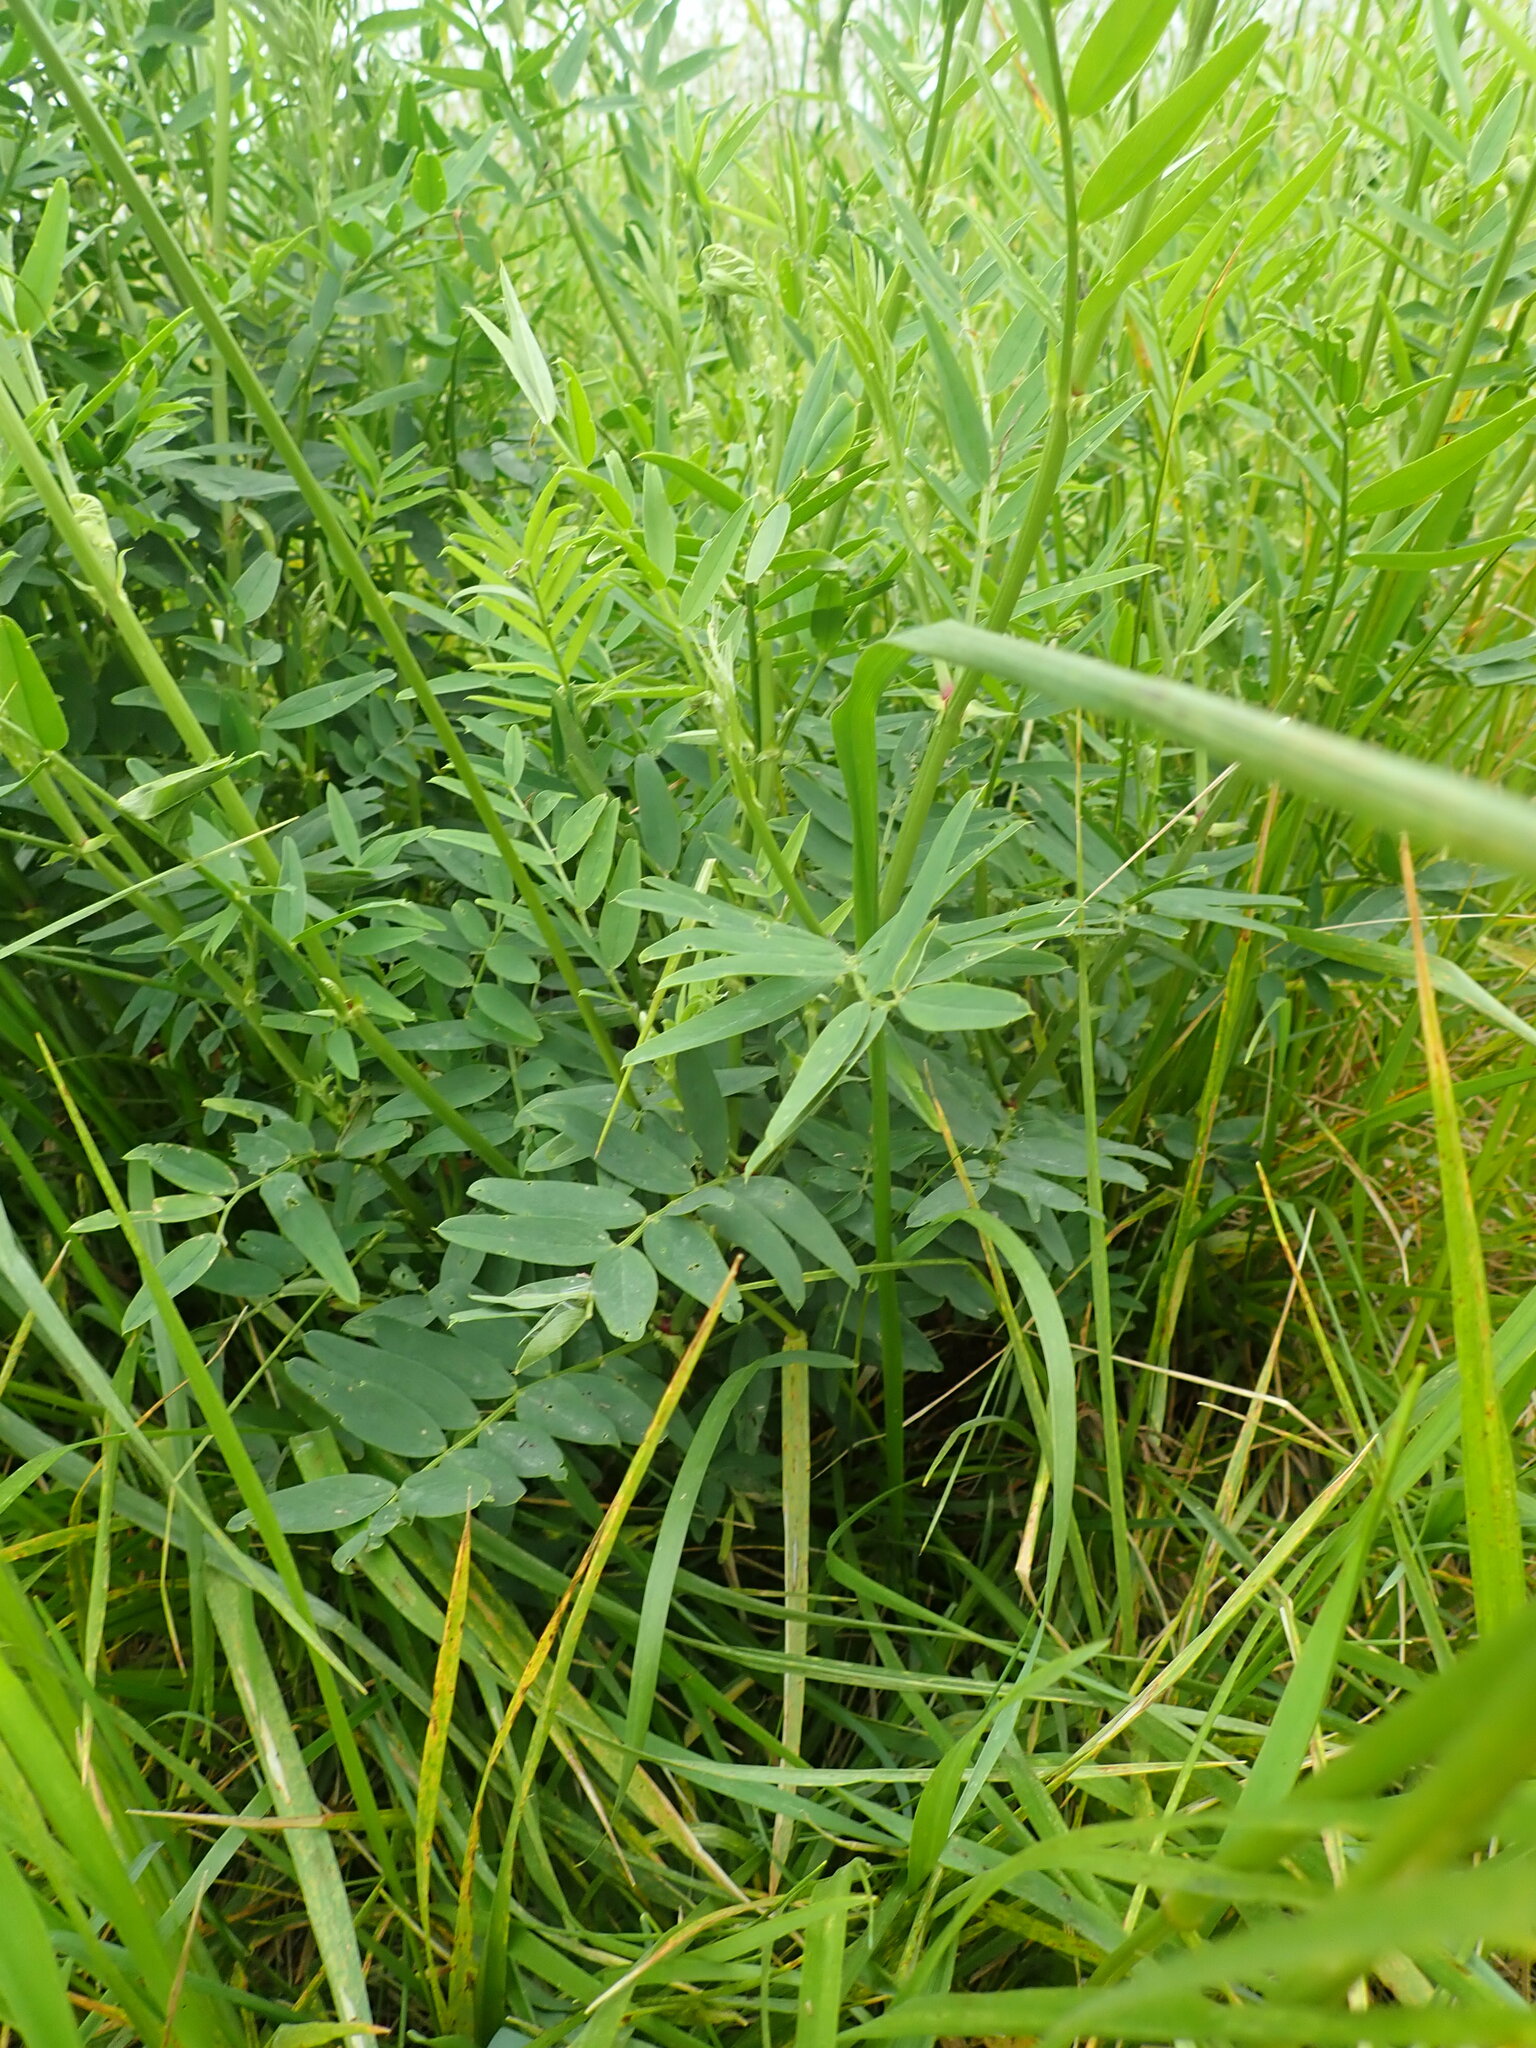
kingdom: Plantae
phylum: Tracheophyta
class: Magnoliopsida
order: Fabales
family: Fabaceae
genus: Galega
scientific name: Galega officinalis
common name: Goat's-rue
